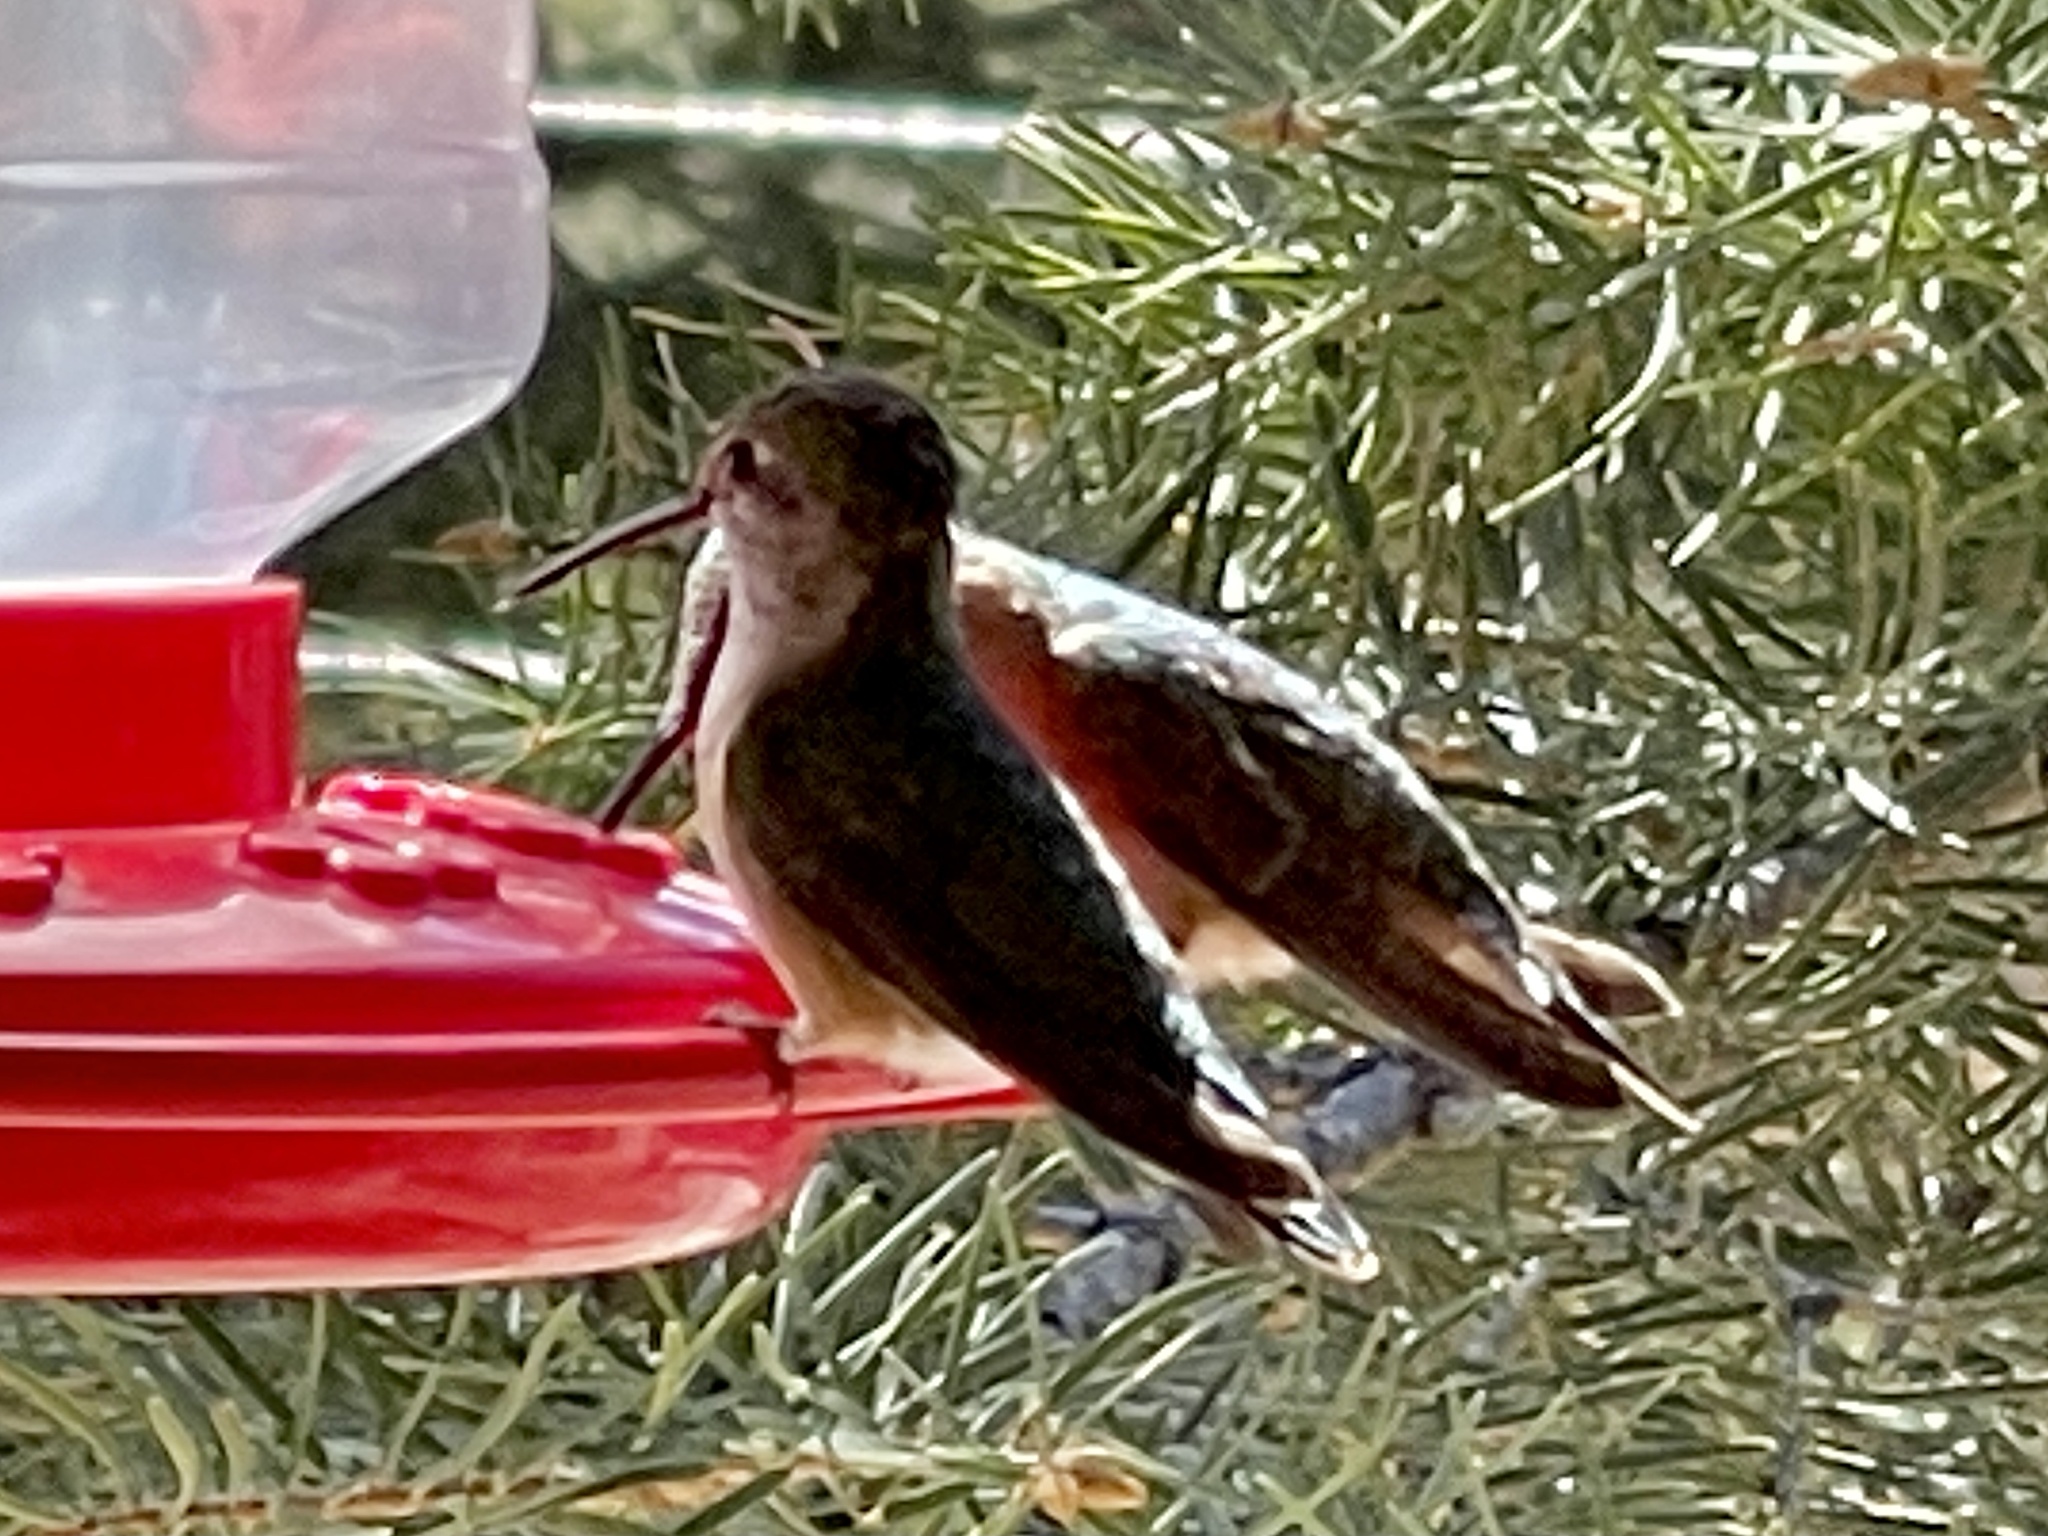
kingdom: Animalia
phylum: Chordata
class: Aves
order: Apodiformes
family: Trochilidae
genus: Selasphorus
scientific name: Selasphorus platycercus
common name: Broad-tailed hummingbird
